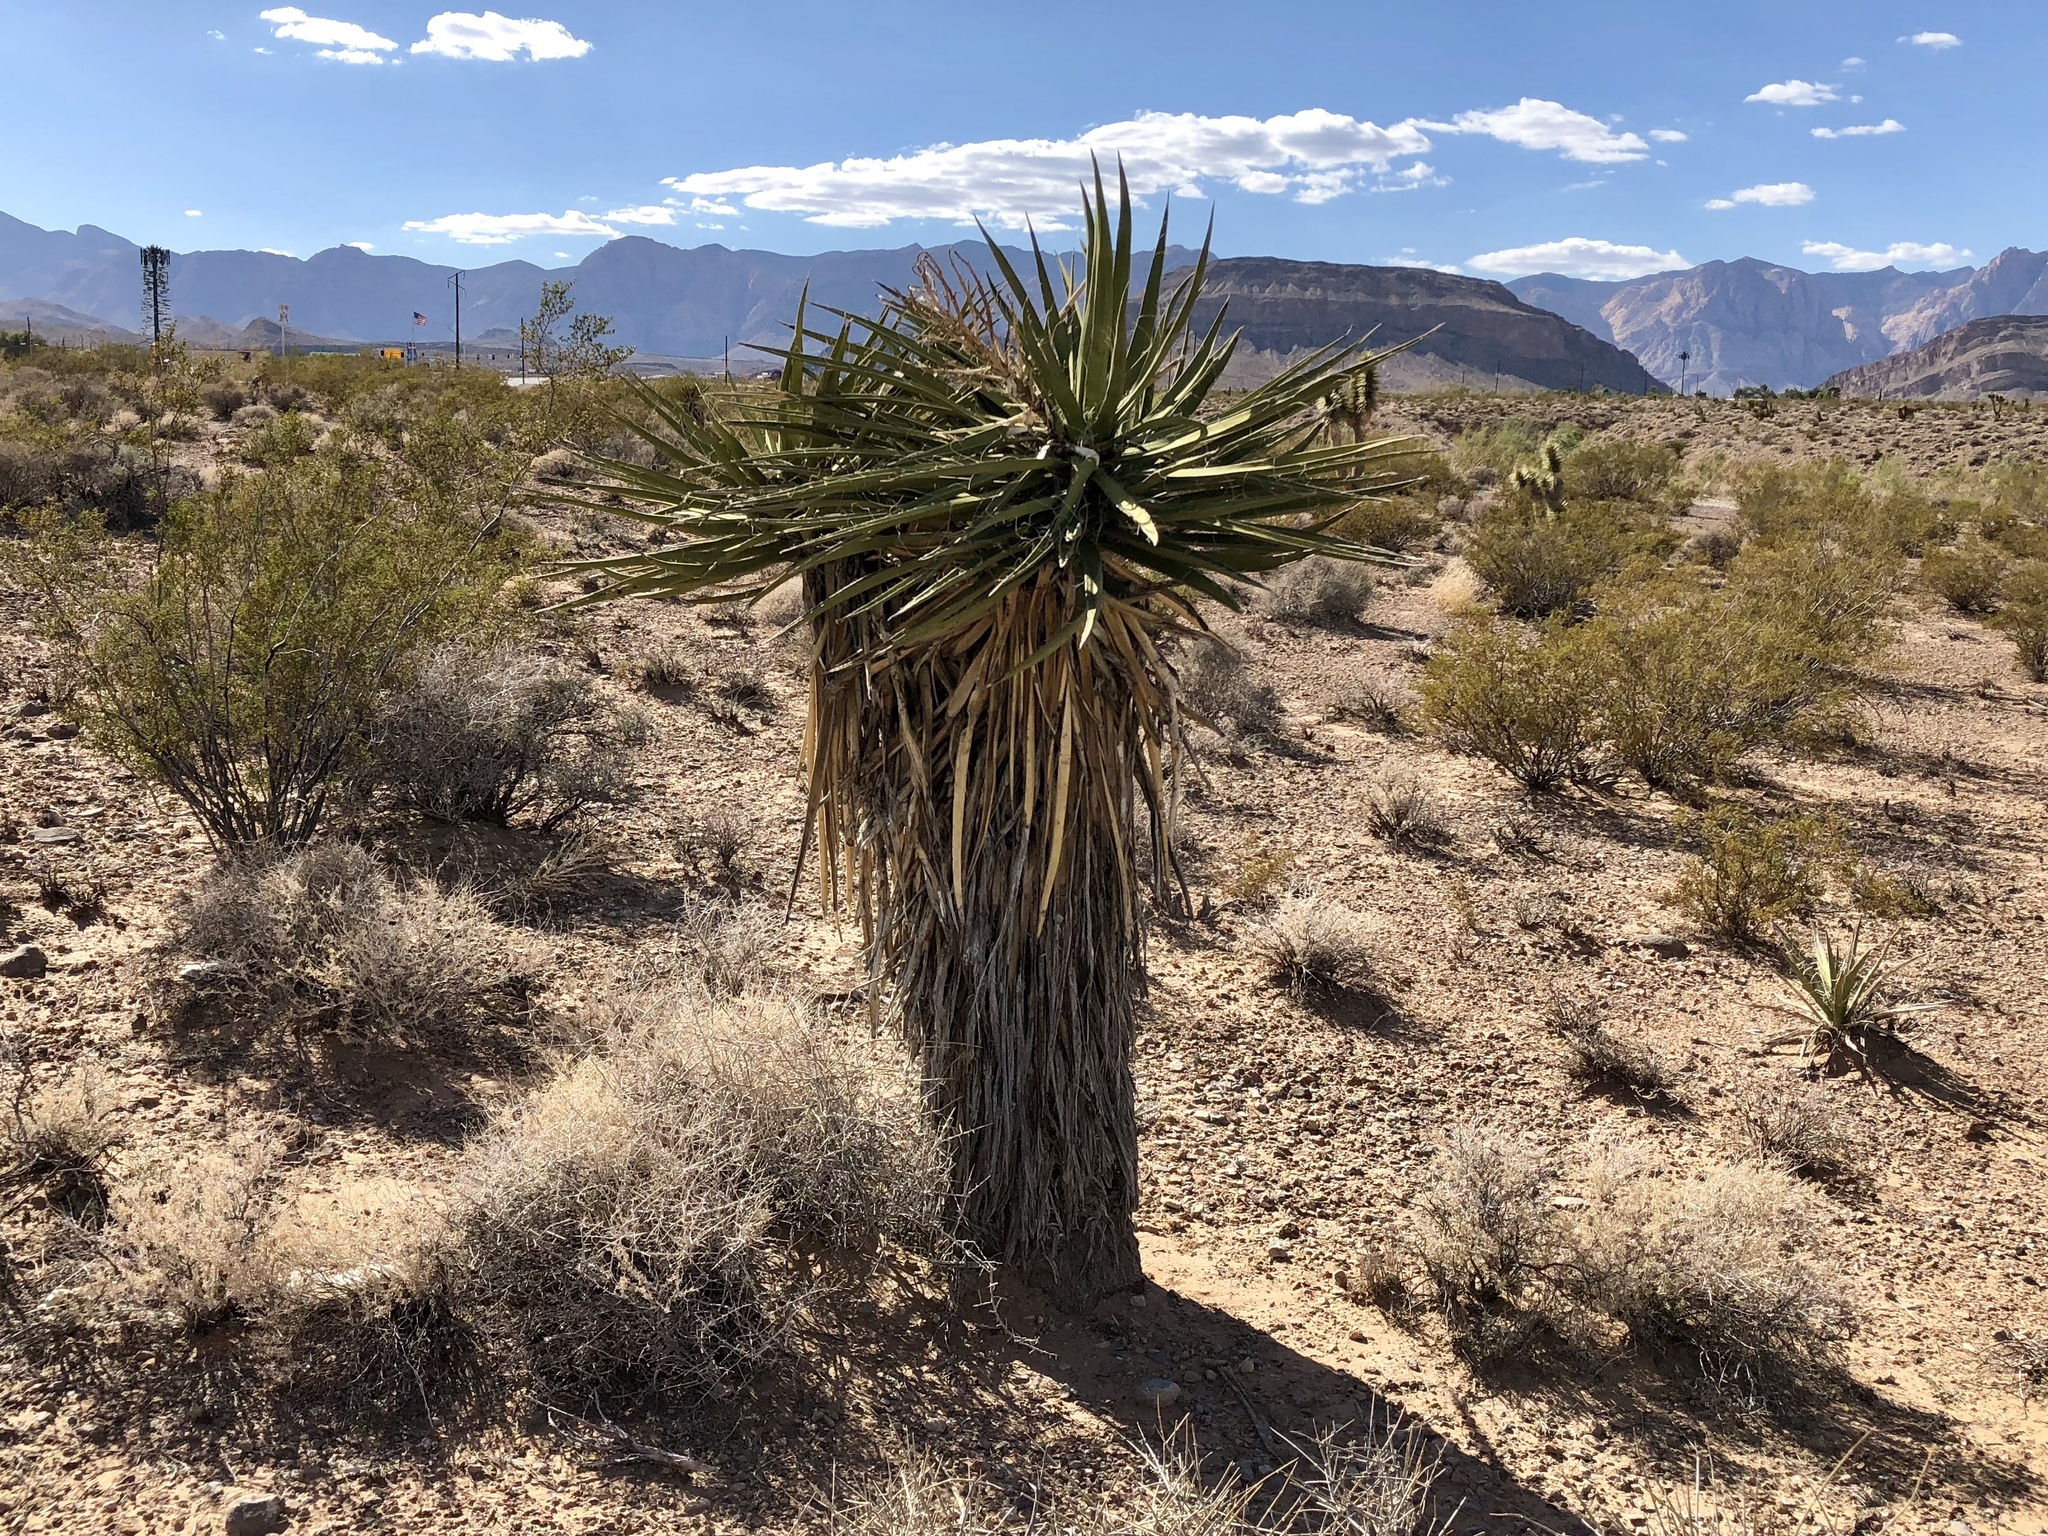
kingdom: Plantae
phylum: Tracheophyta
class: Liliopsida
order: Asparagales
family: Asparagaceae
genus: Yucca
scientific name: Yucca schidigera
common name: Mojave yucca
